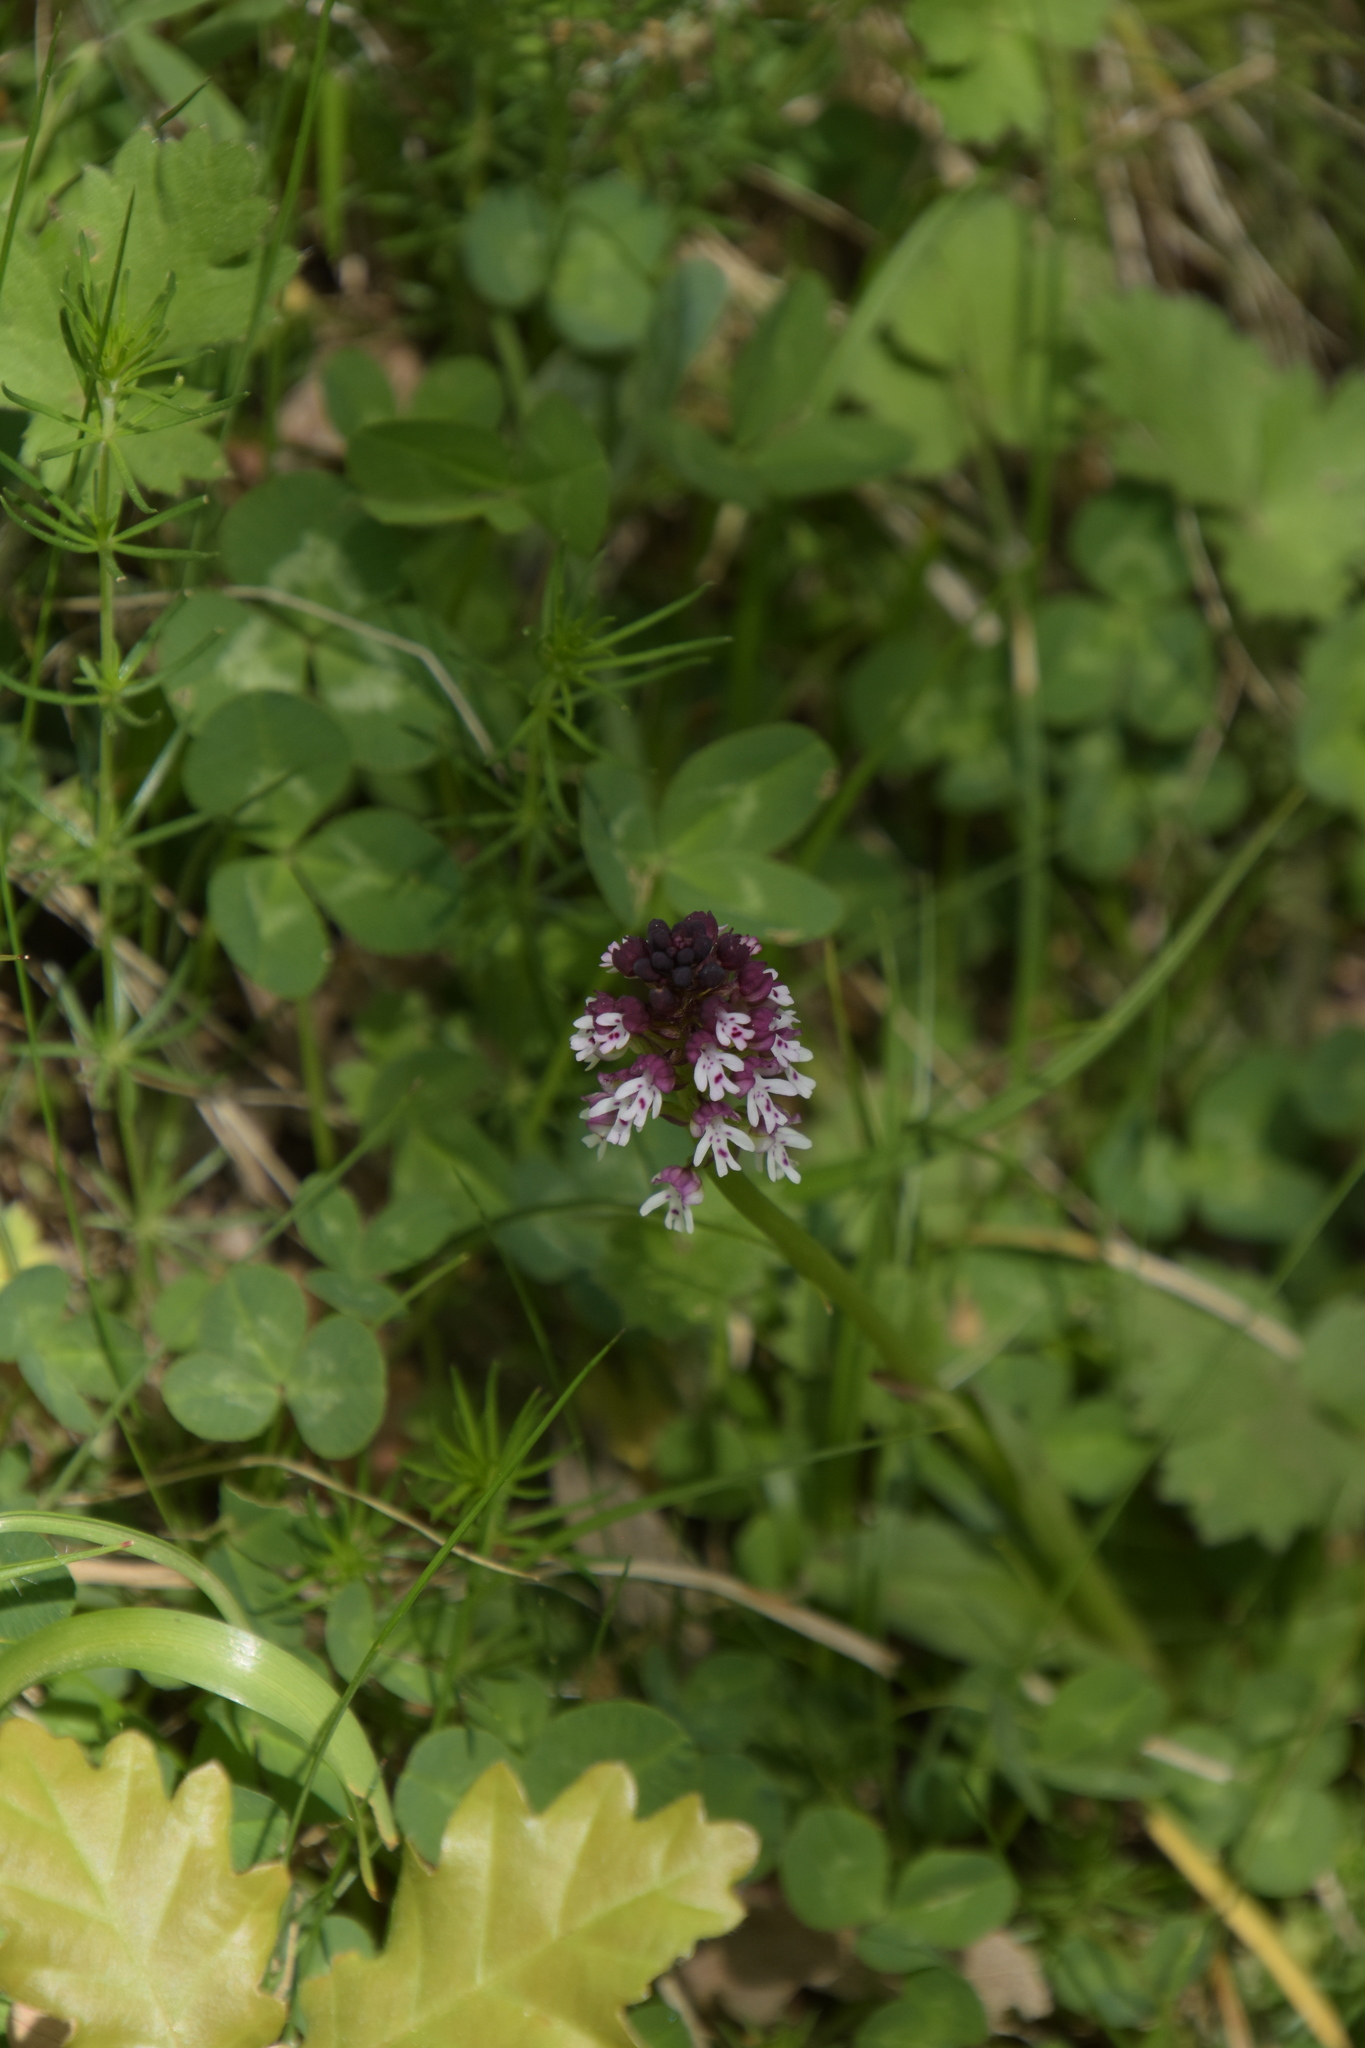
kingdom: Plantae
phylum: Tracheophyta
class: Liliopsida
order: Asparagales
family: Orchidaceae
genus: Neotinea
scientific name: Neotinea ustulata
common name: Burnt orchid
